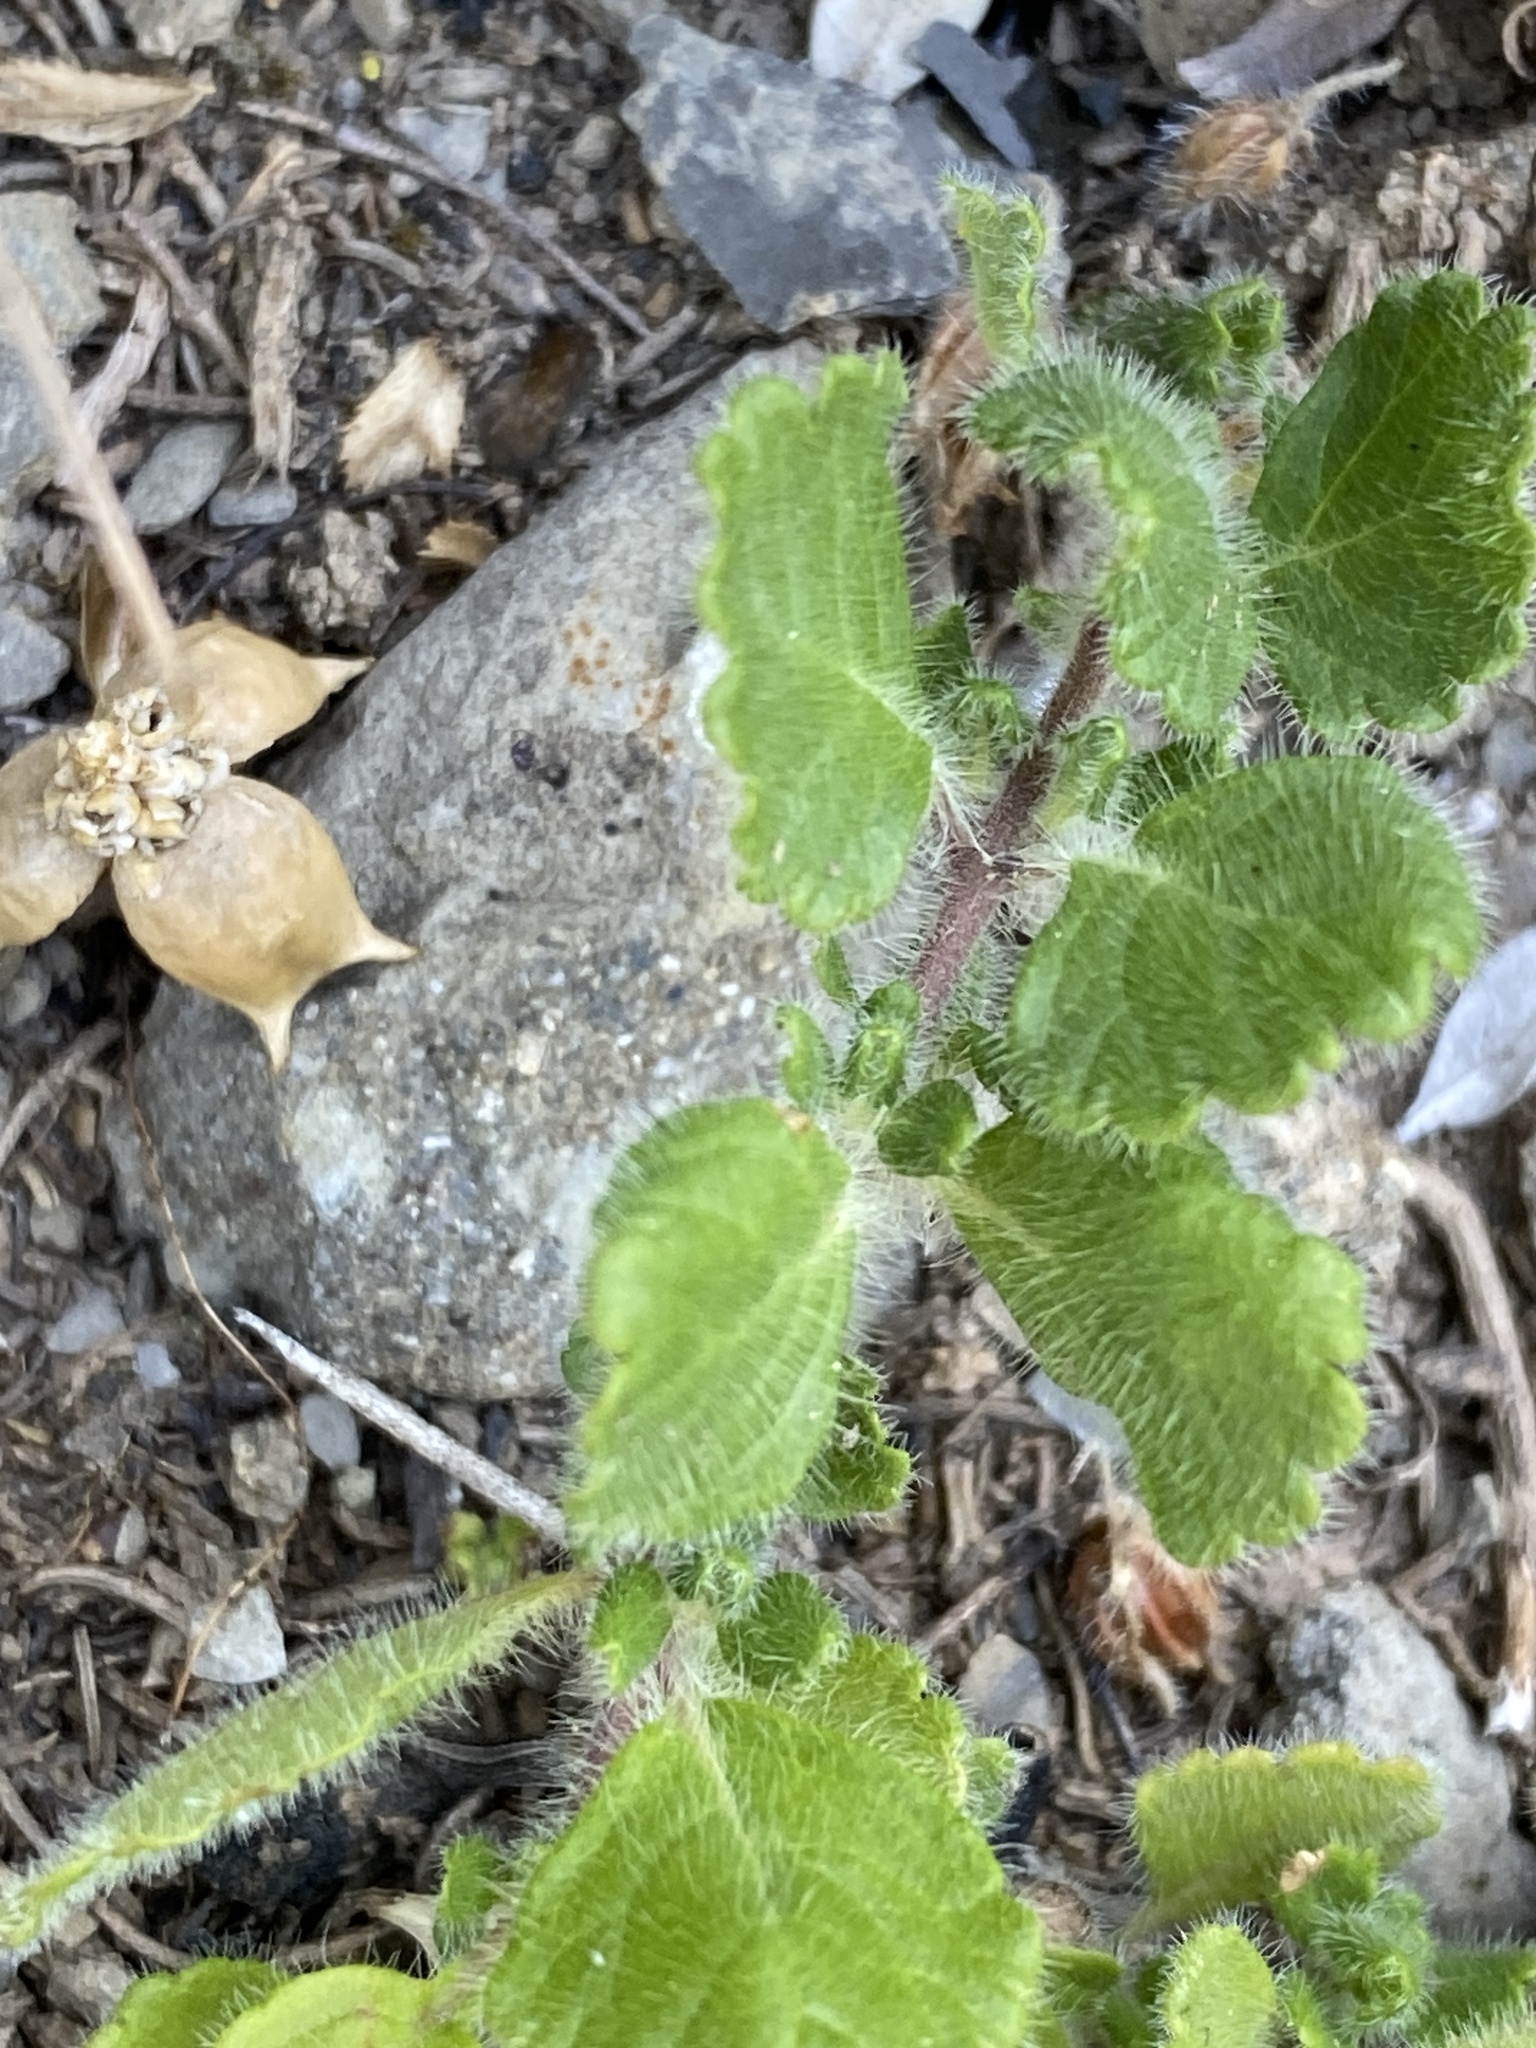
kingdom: Plantae
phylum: Tracheophyta
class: Magnoliopsida
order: Lamiales
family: Lamiaceae
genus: Teucrium
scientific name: Teucrium pyrenaicum
